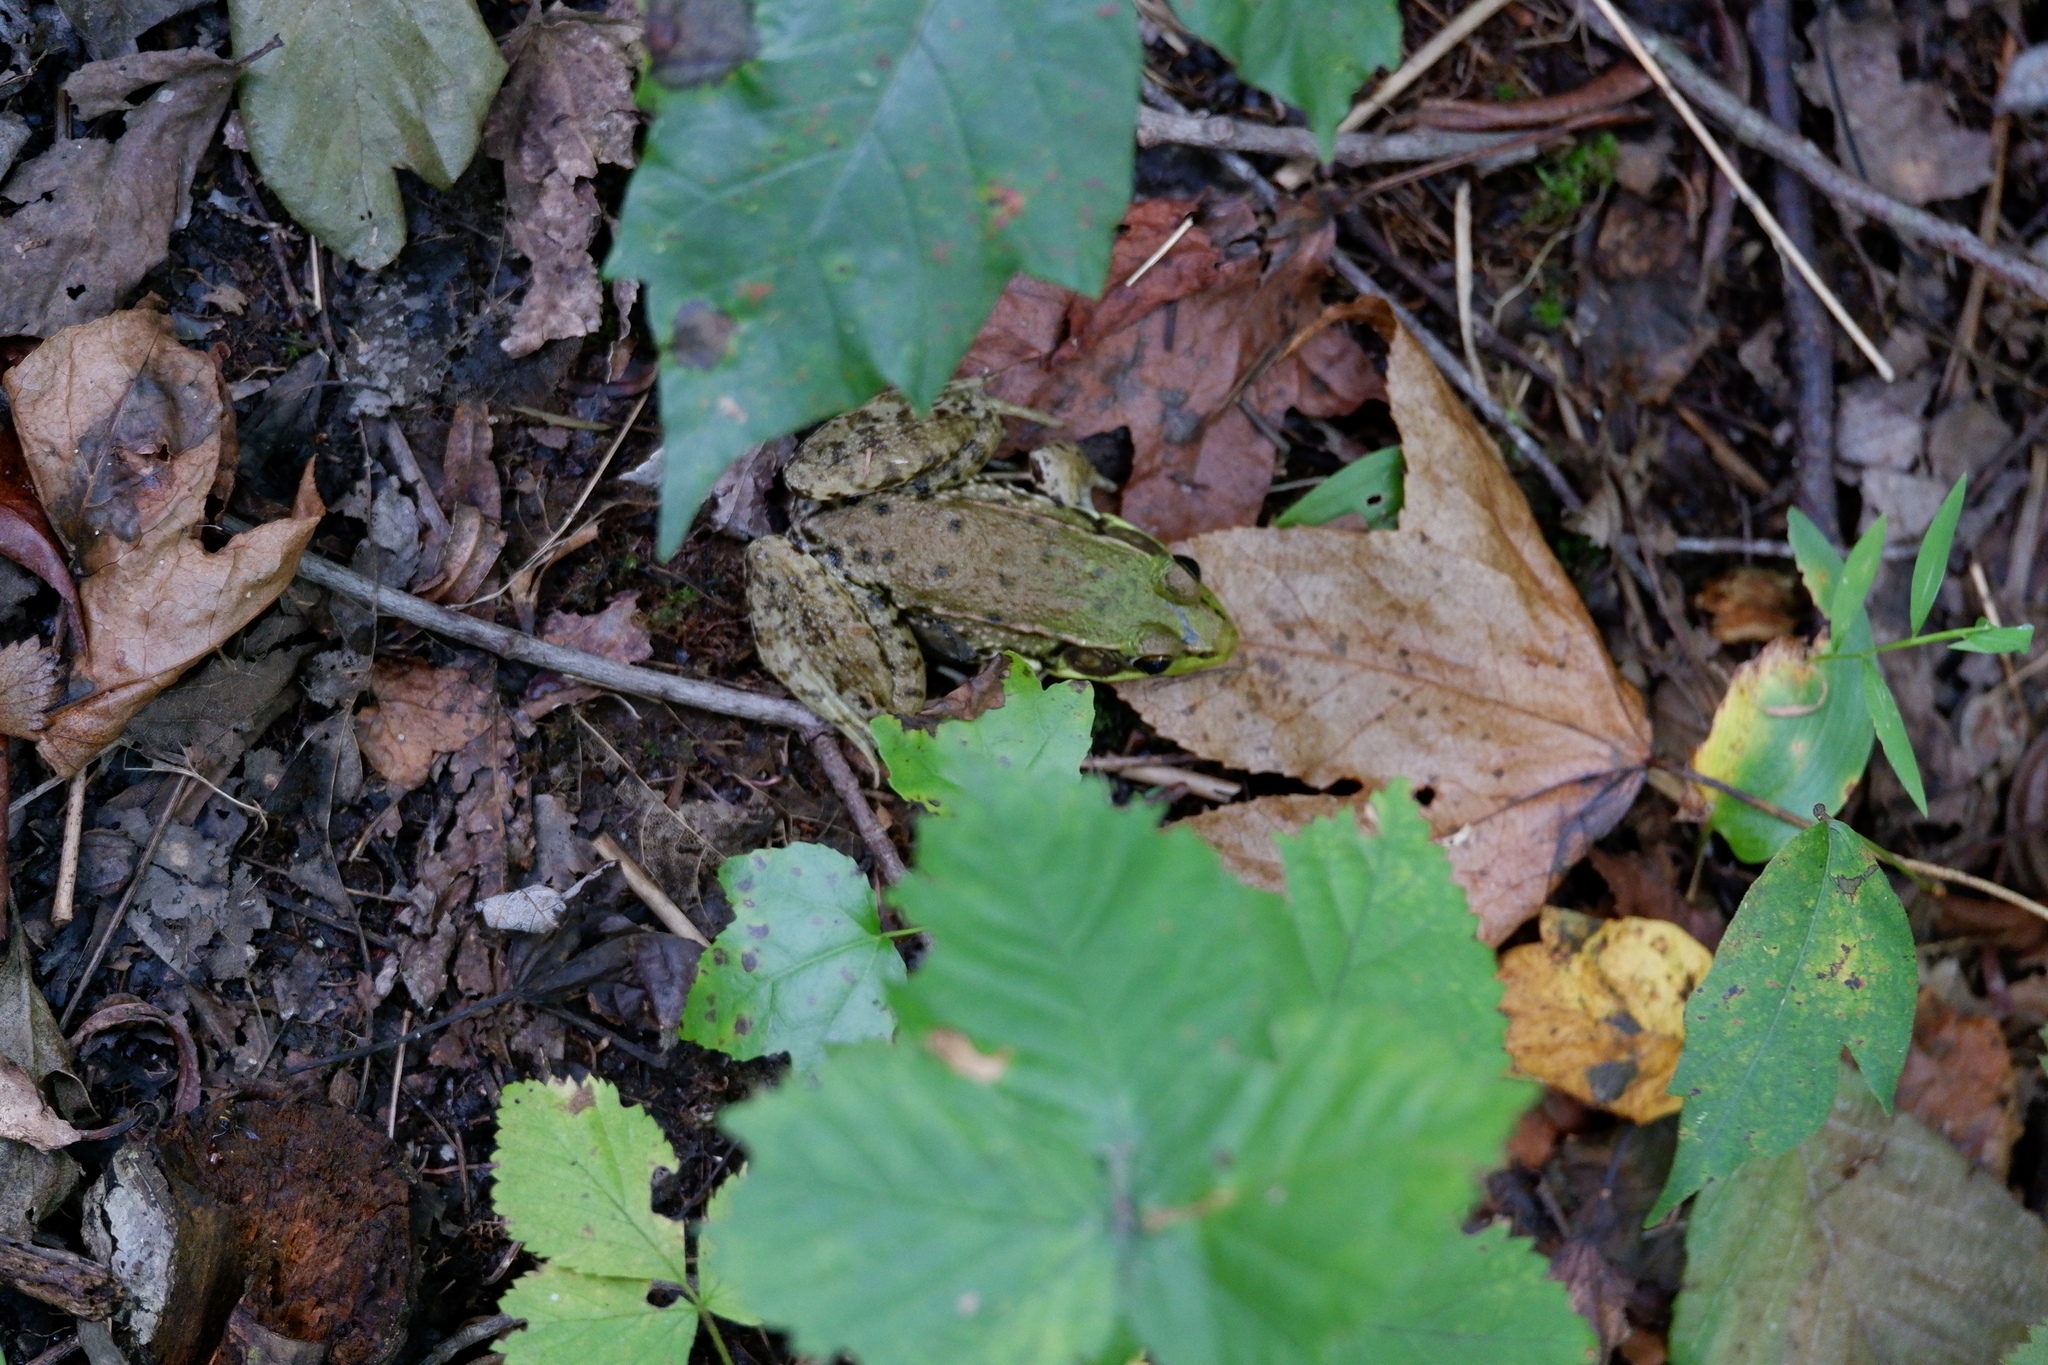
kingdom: Animalia
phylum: Chordata
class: Amphibia
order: Anura
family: Ranidae
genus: Lithobates
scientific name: Lithobates clamitans
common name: Green frog
